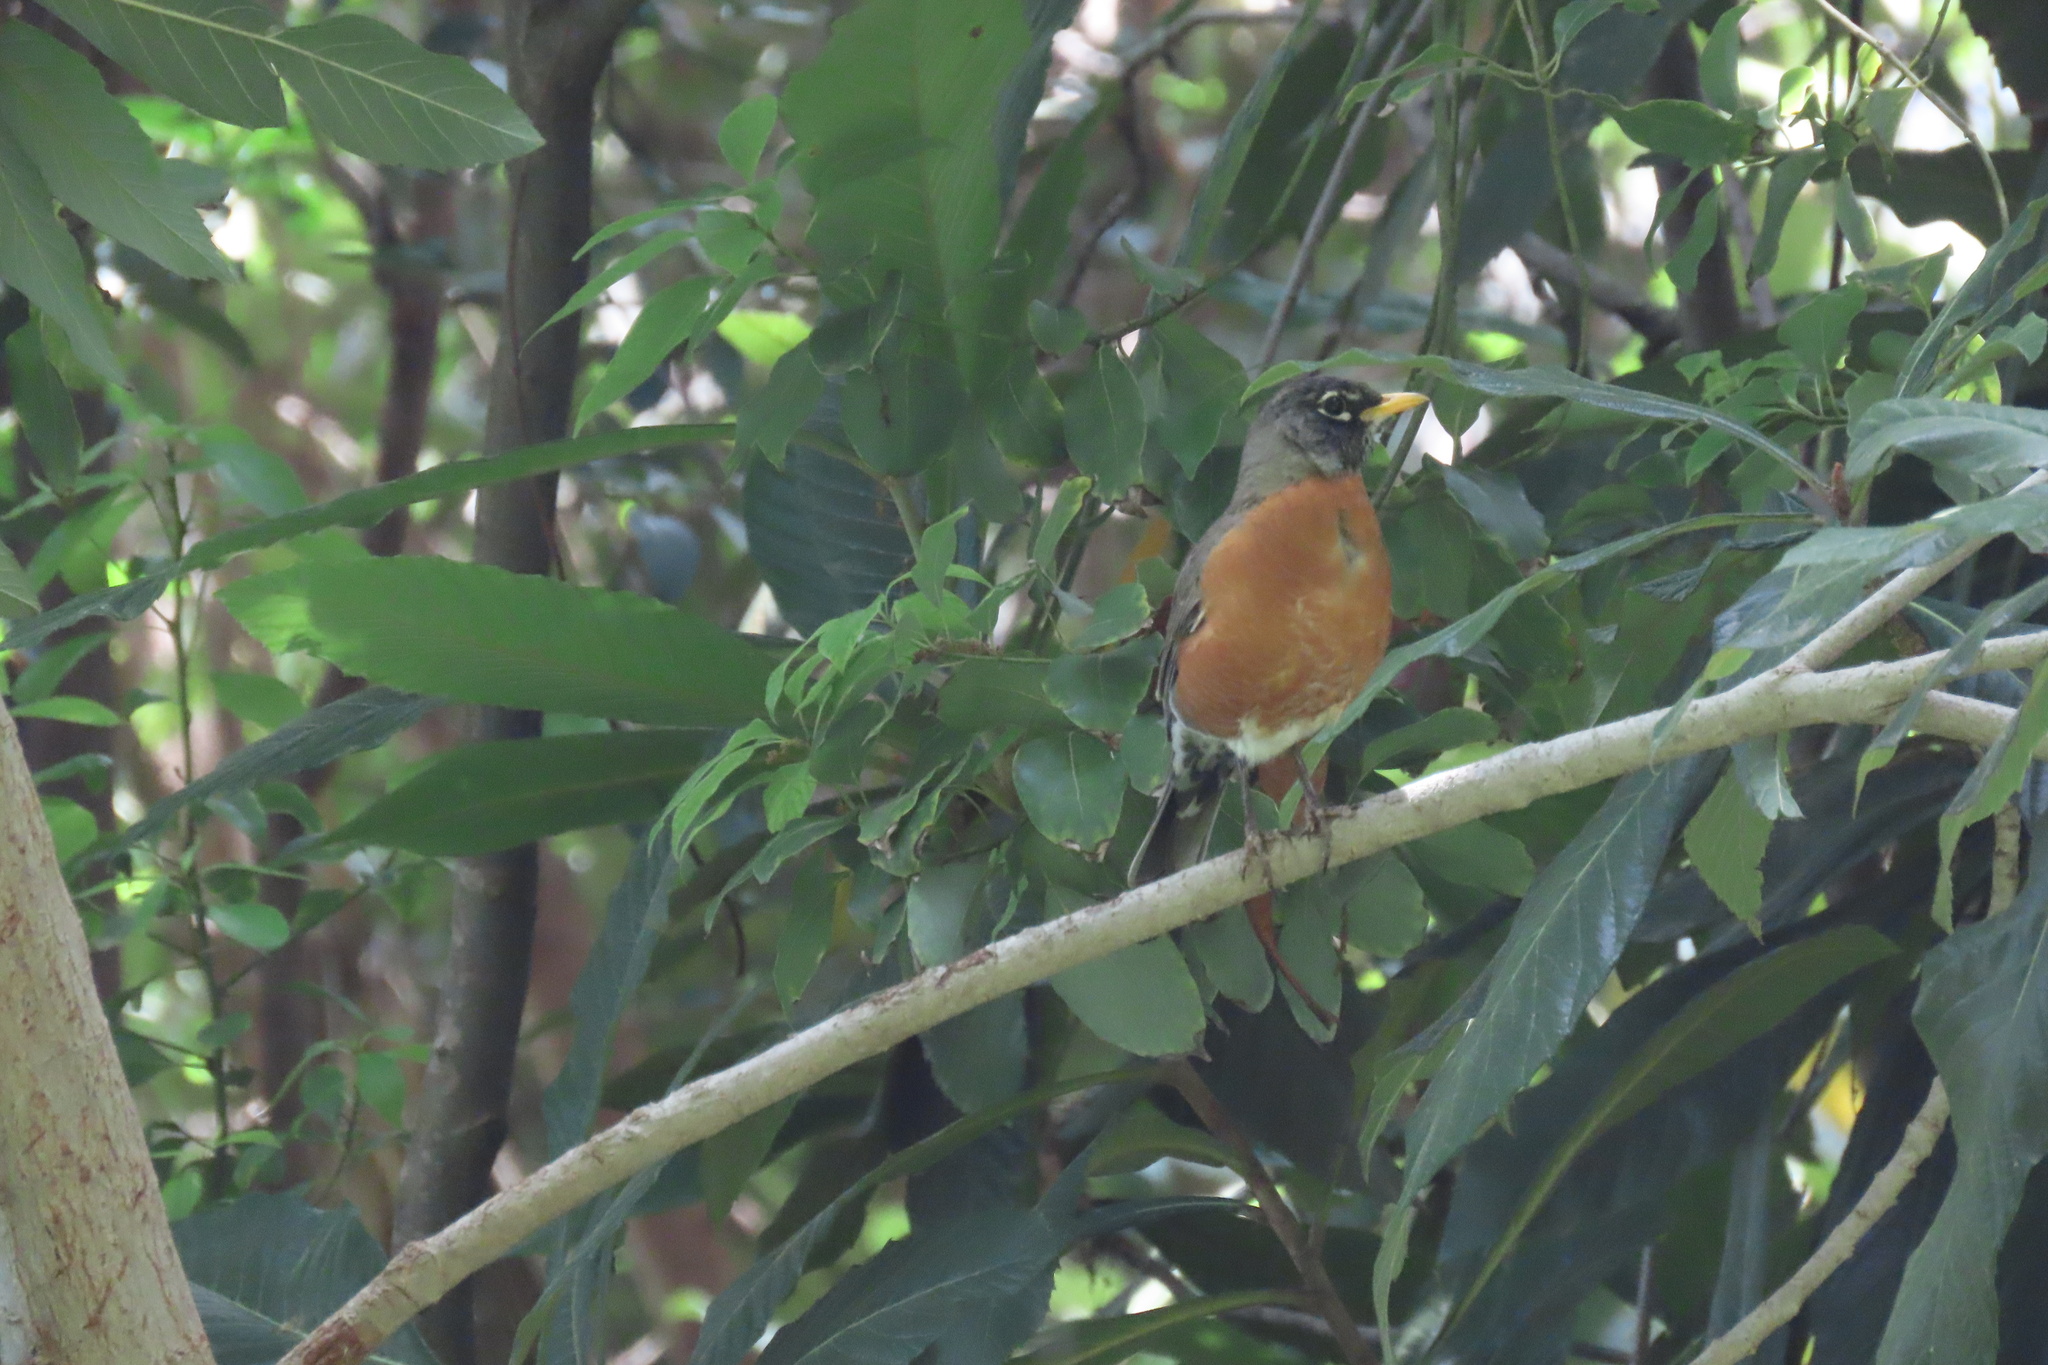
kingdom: Animalia
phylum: Chordata
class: Aves
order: Passeriformes
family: Turdidae
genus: Turdus
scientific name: Turdus migratorius
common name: American robin
